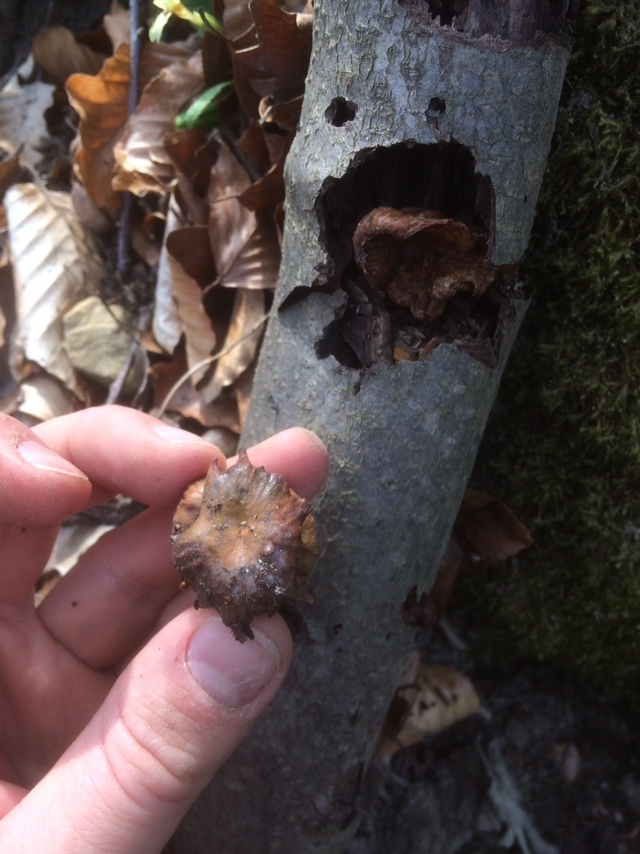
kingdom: Animalia
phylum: Arthropoda
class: Insecta
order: Hymenoptera
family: Cynipidae
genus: Andricus
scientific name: Andricus dentimitratus
